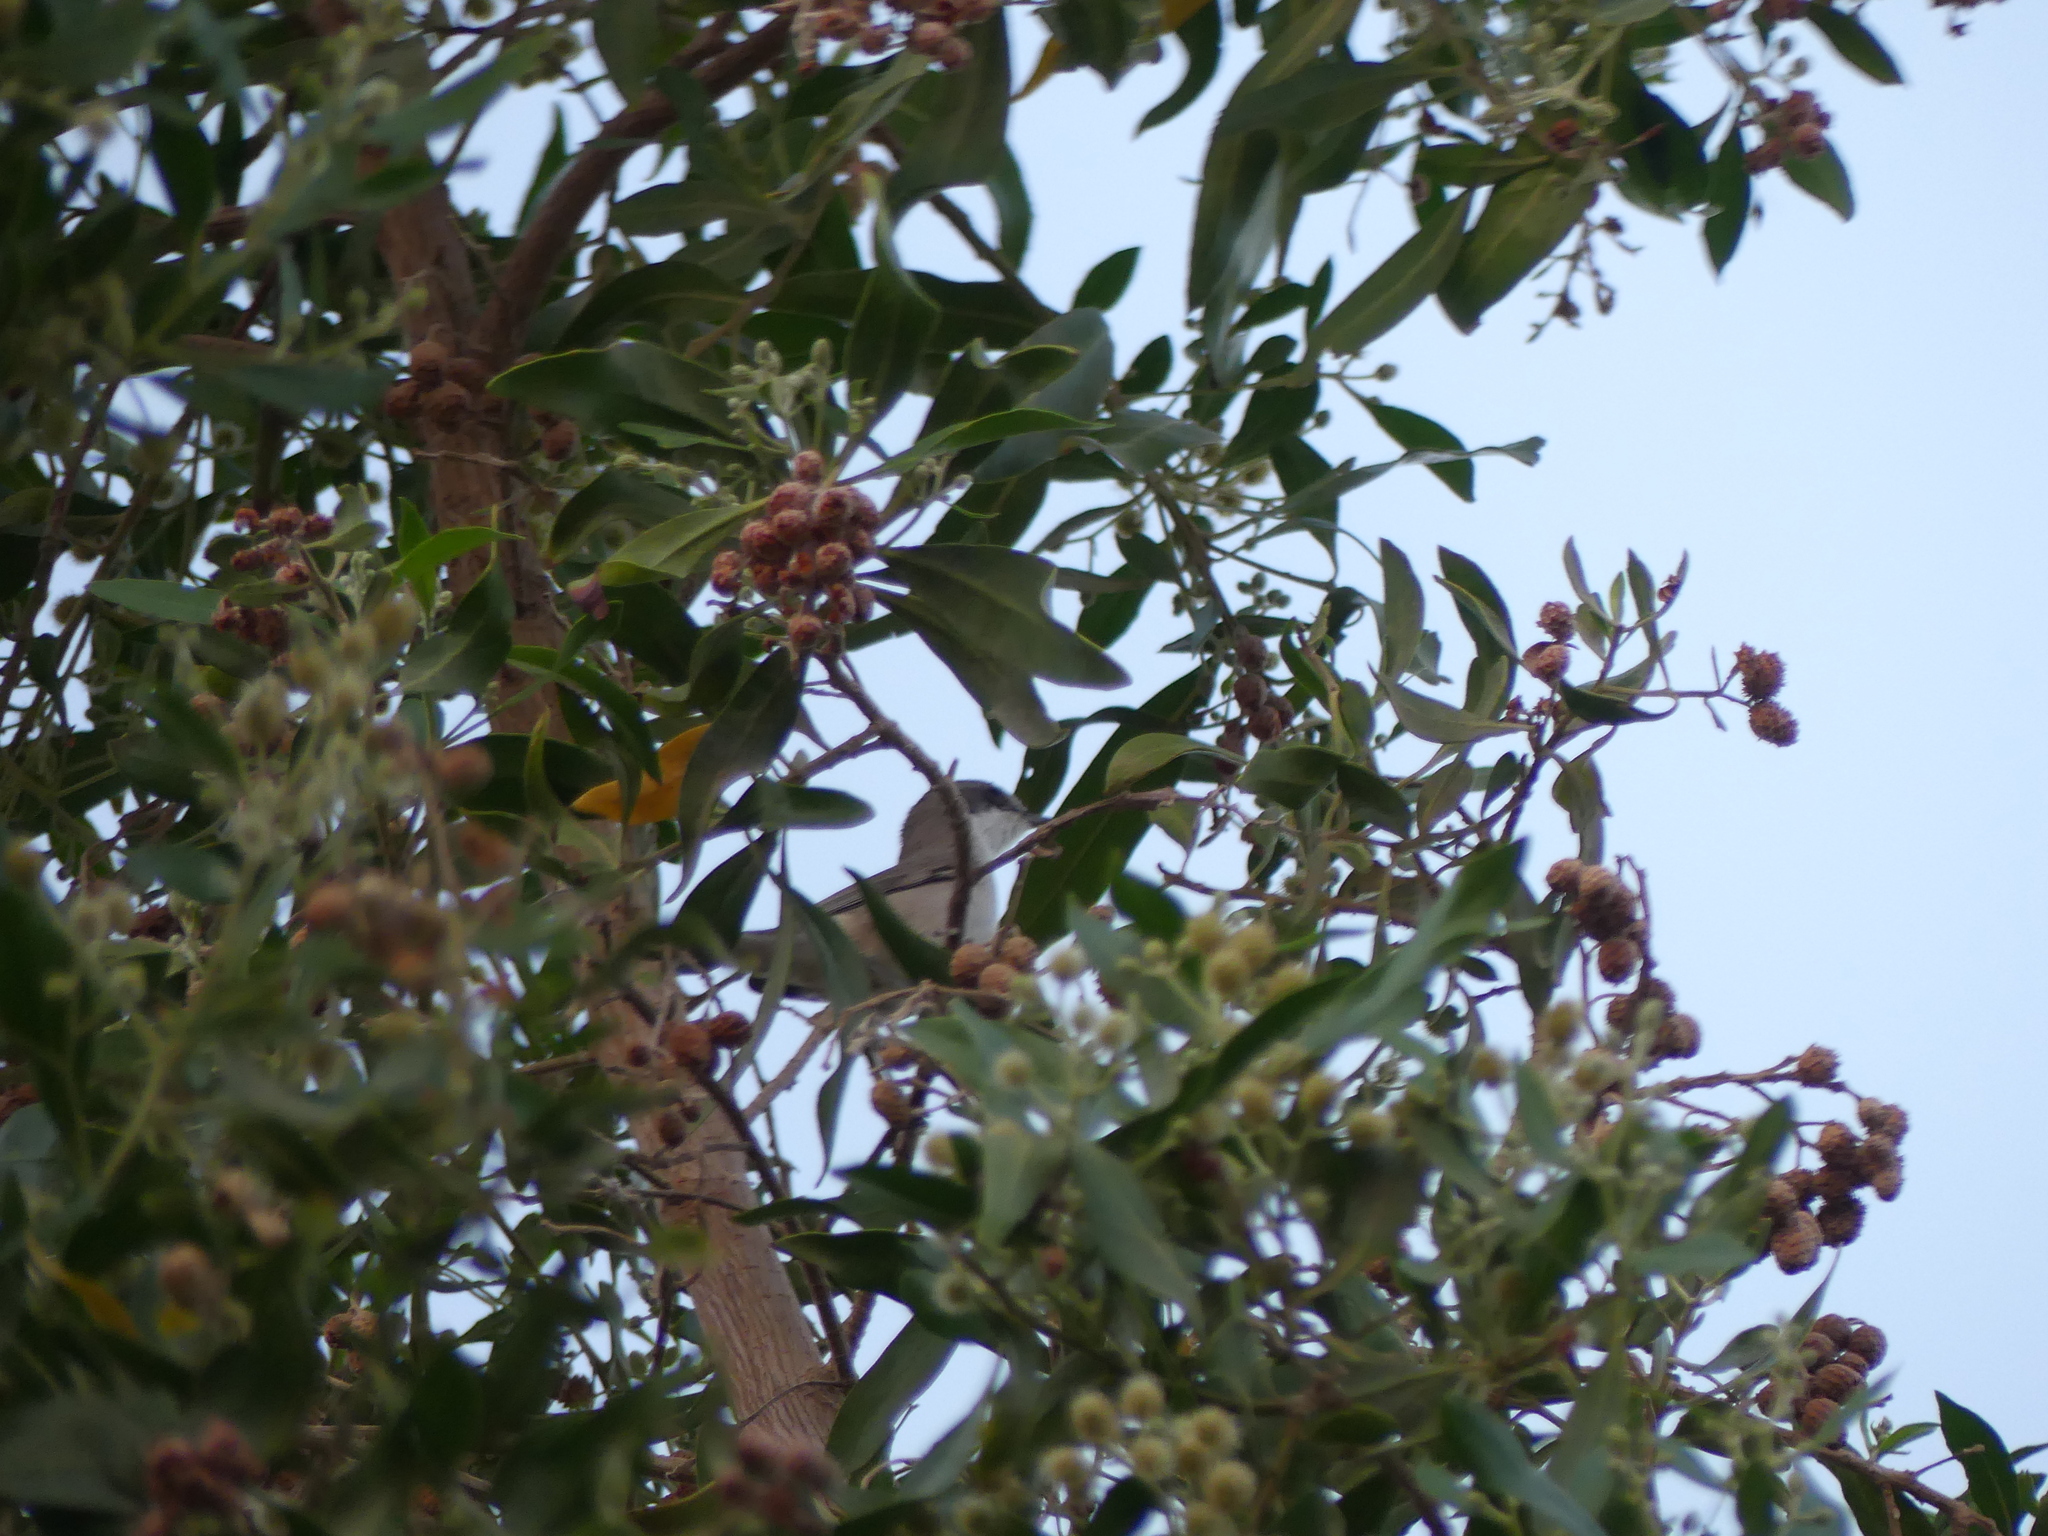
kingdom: Animalia
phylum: Chordata
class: Aves
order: Passeriformes
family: Sylviidae
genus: Sylvia
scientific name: Sylvia curruca
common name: Lesser whitethroat
